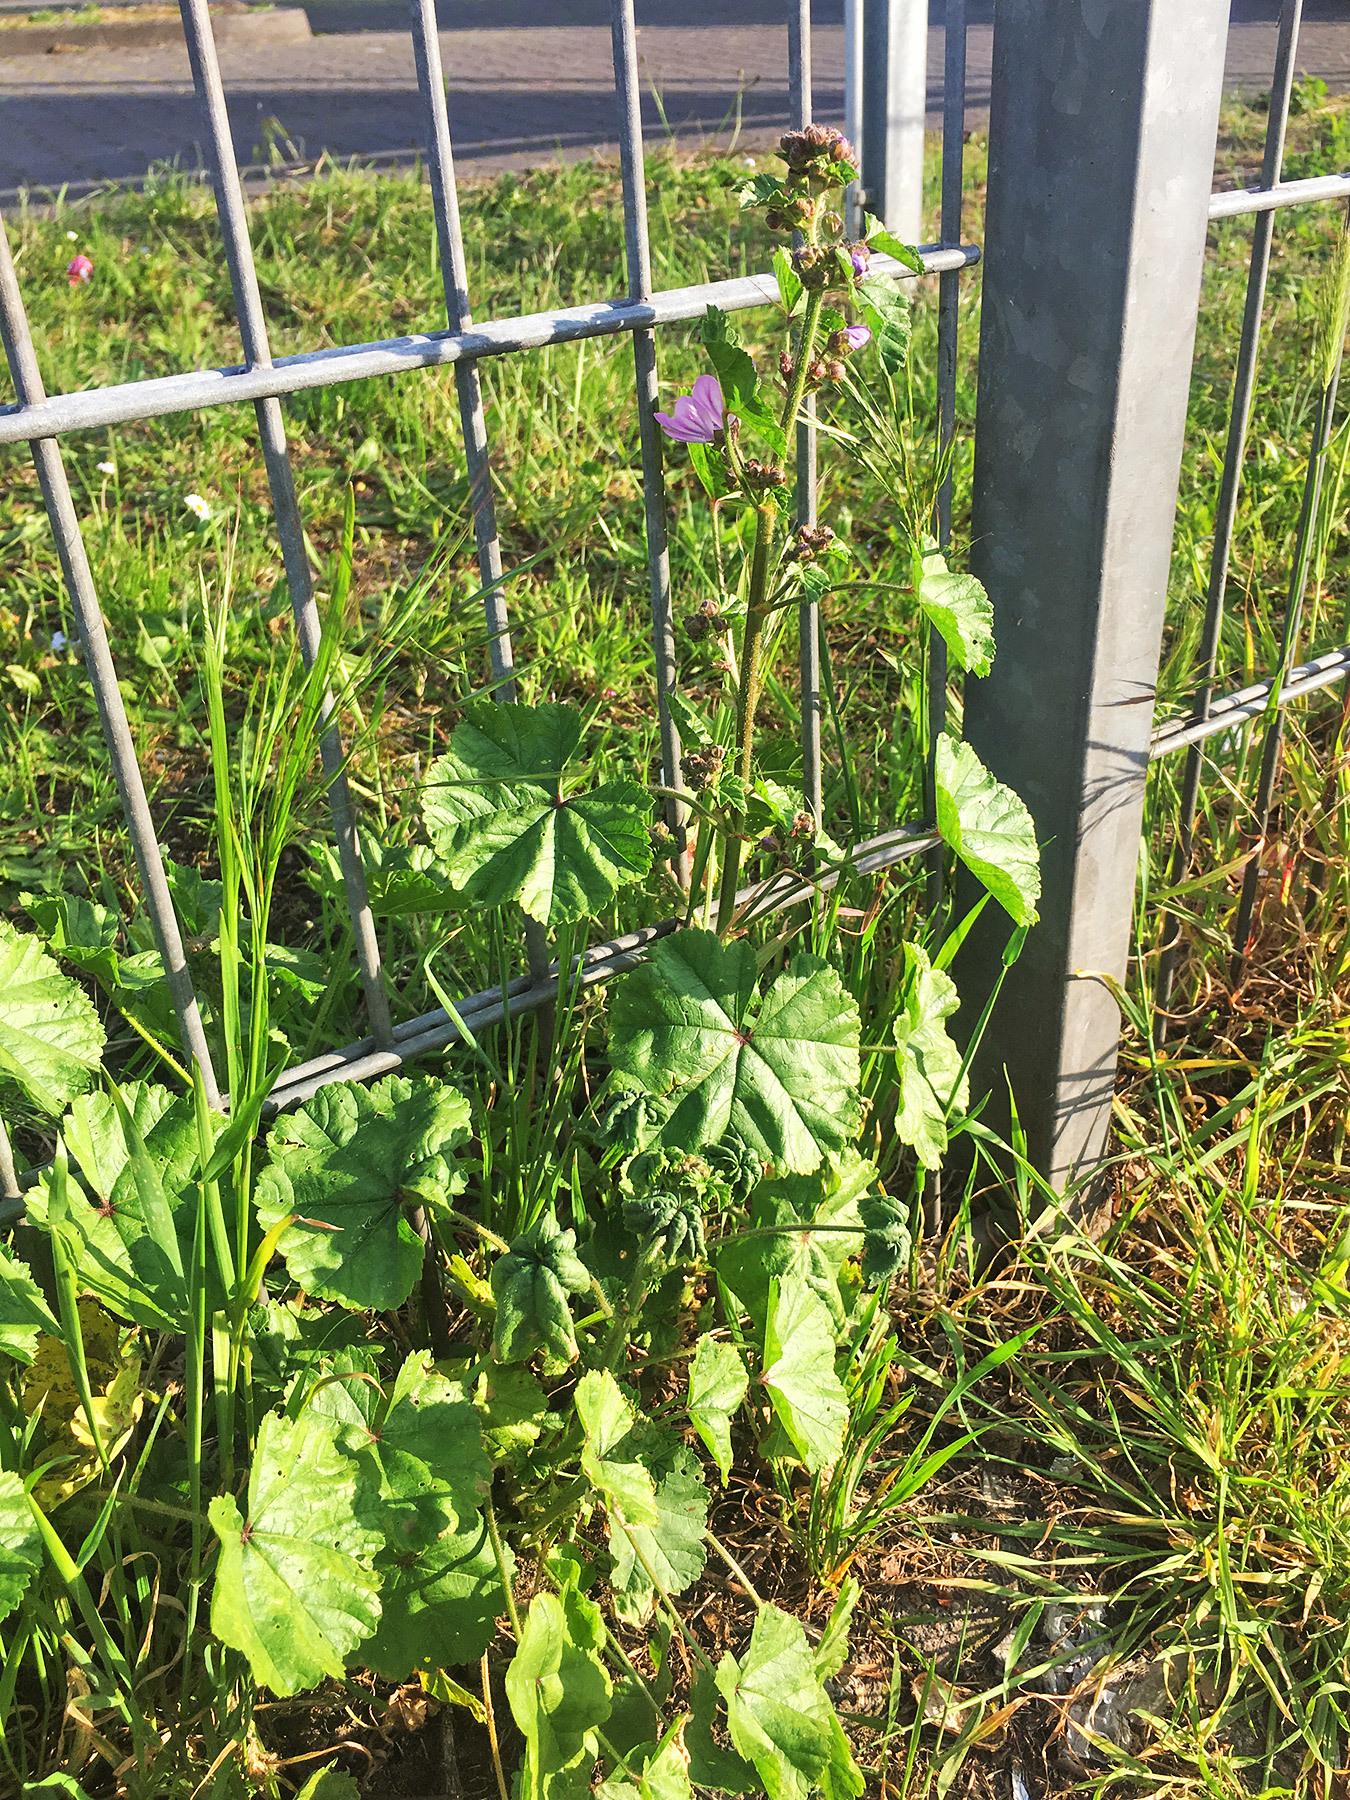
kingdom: Plantae
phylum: Tracheophyta
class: Magnoliopsida
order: Malvales
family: Malvaceae
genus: Malva
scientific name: Malva sylvestris
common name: Common mallow
